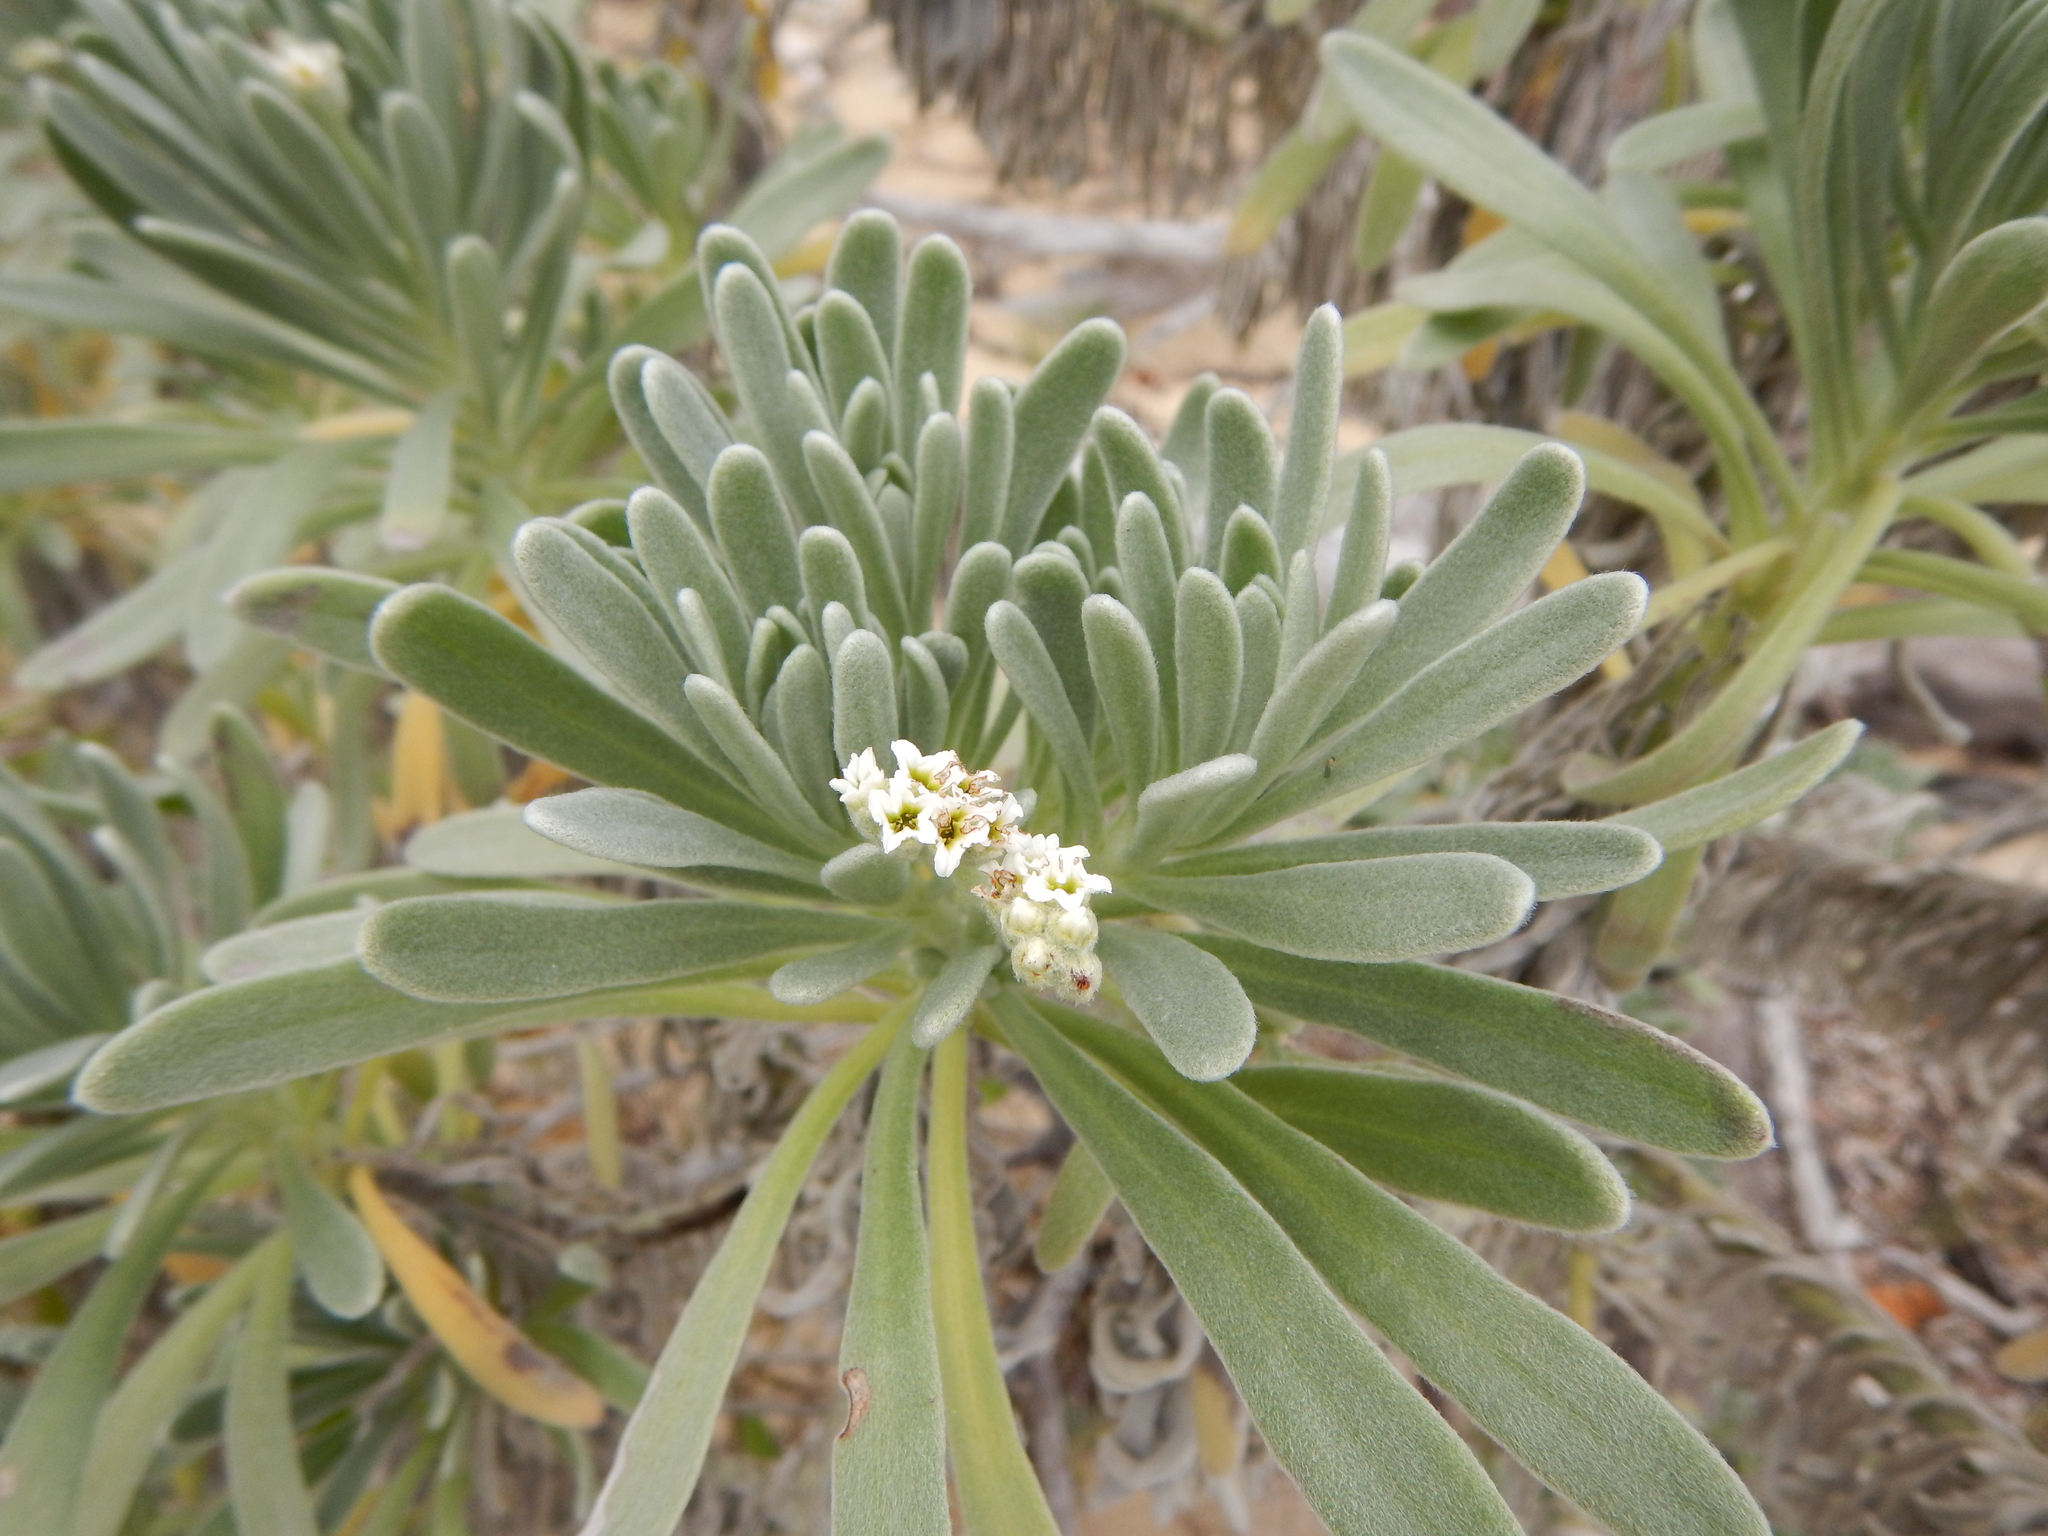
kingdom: Plantae
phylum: Tracheophyta
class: Magnoliopsida
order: Boraginales
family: Heliotropiaceae
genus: Tournefortia
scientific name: Tournefortia gnaphalodes
